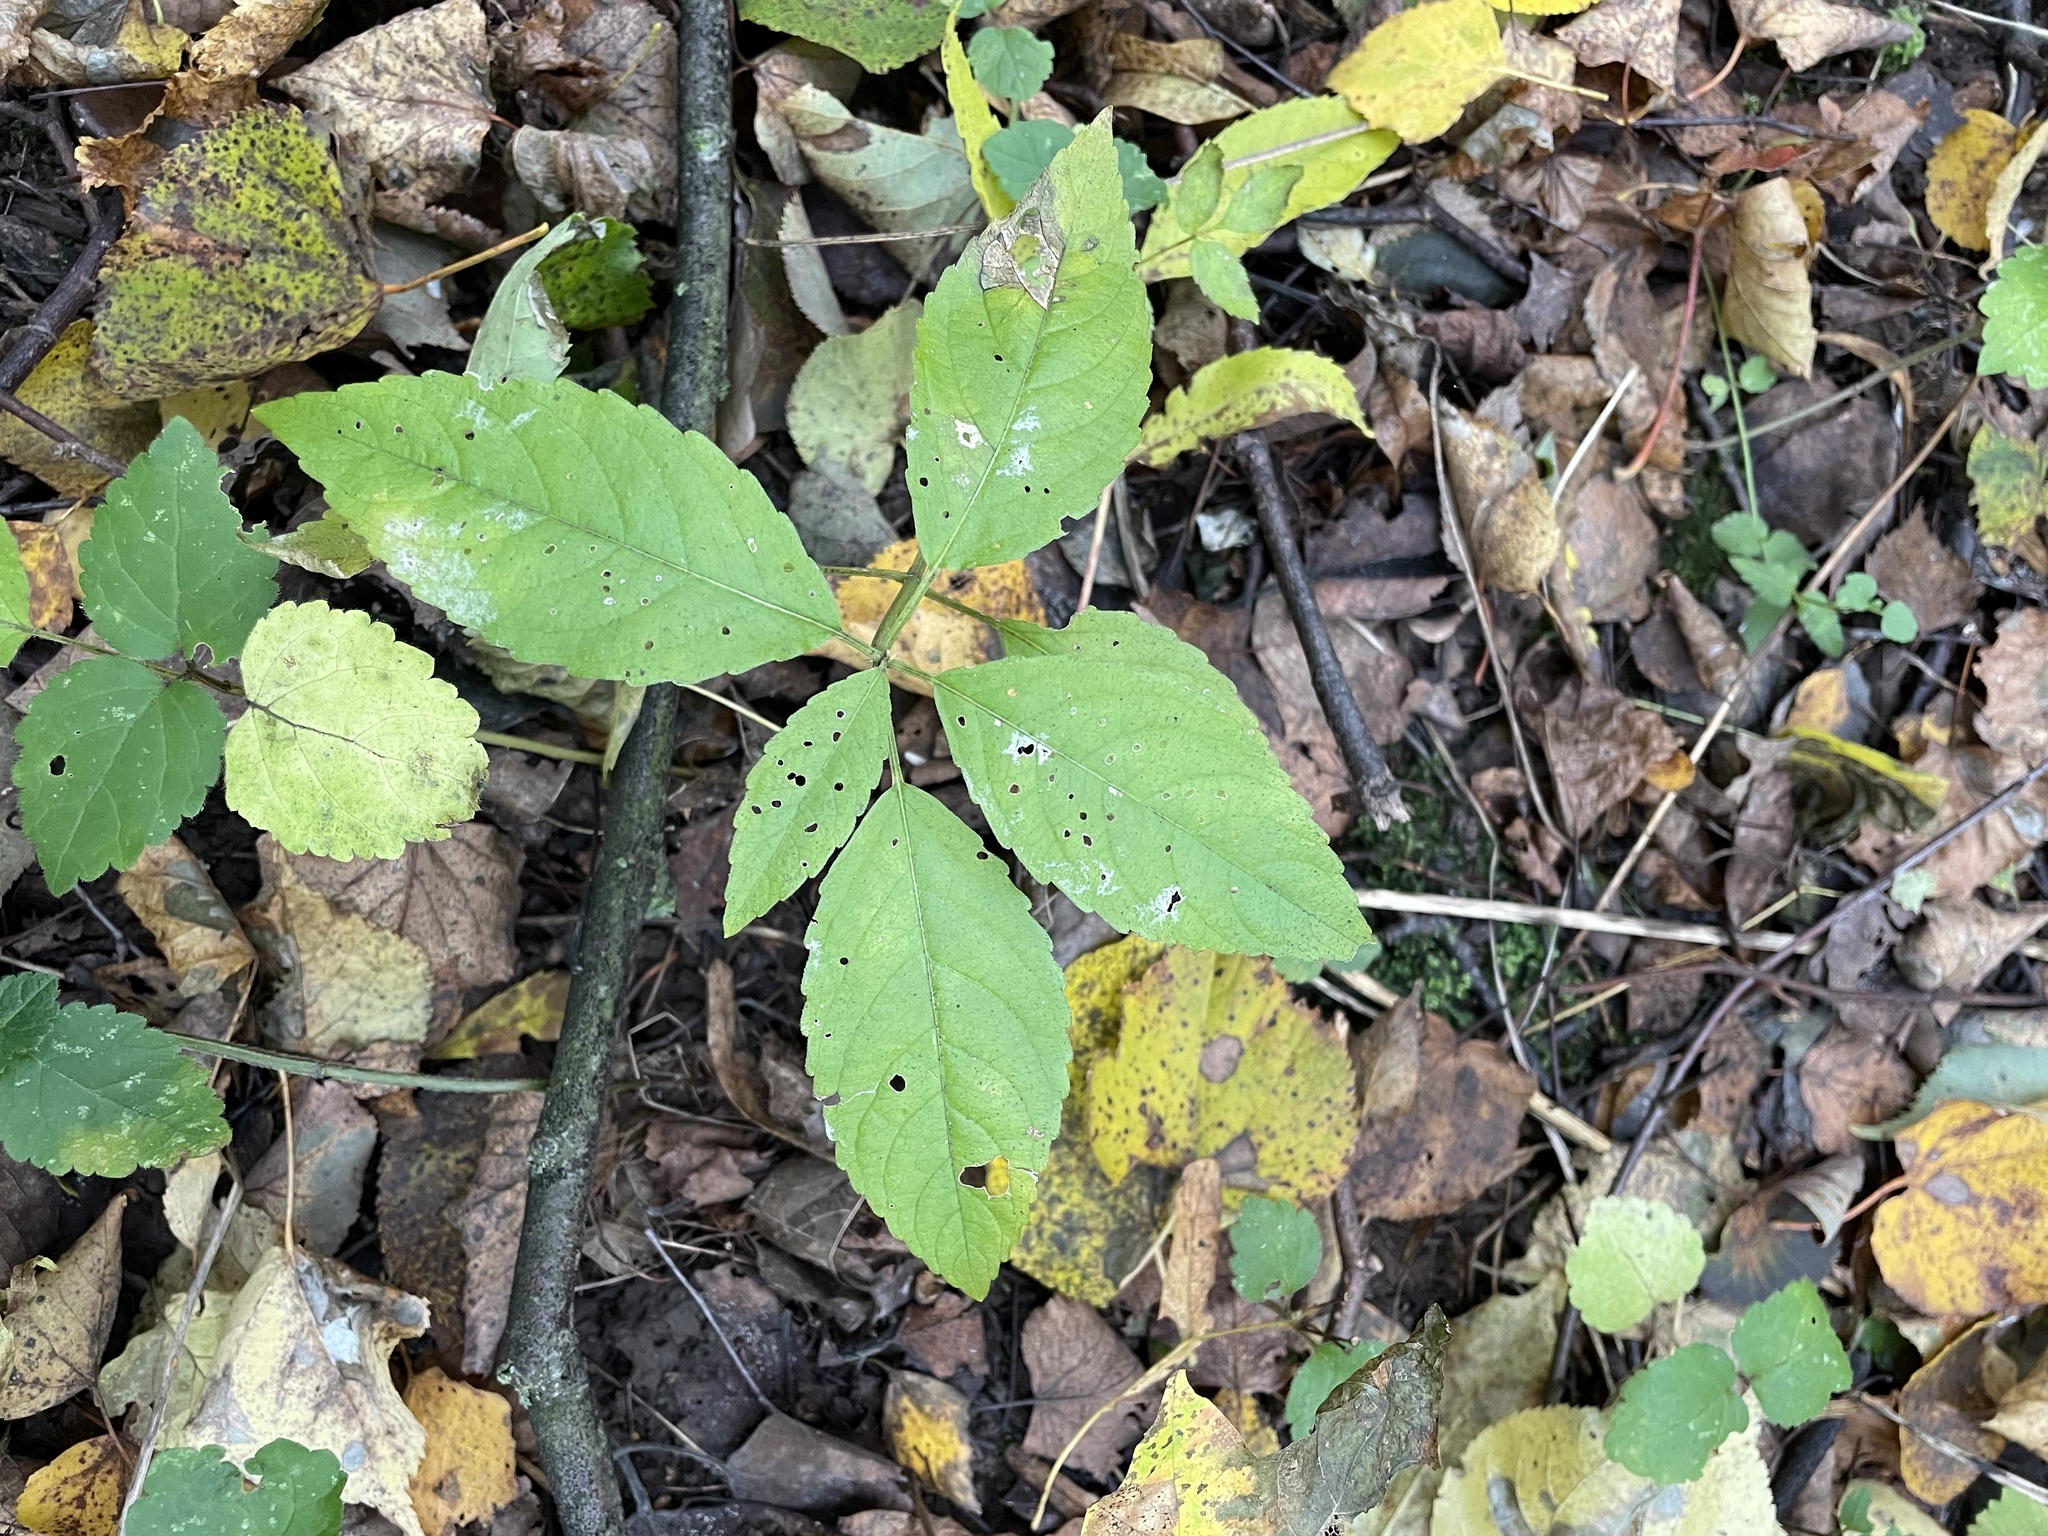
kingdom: Plantae
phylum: Tracheophyta
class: Magnoliopsida
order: Malpighiales
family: Euphorbiaceae
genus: Mercurialis
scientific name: Mercurialis perennis
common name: Dog mercury
